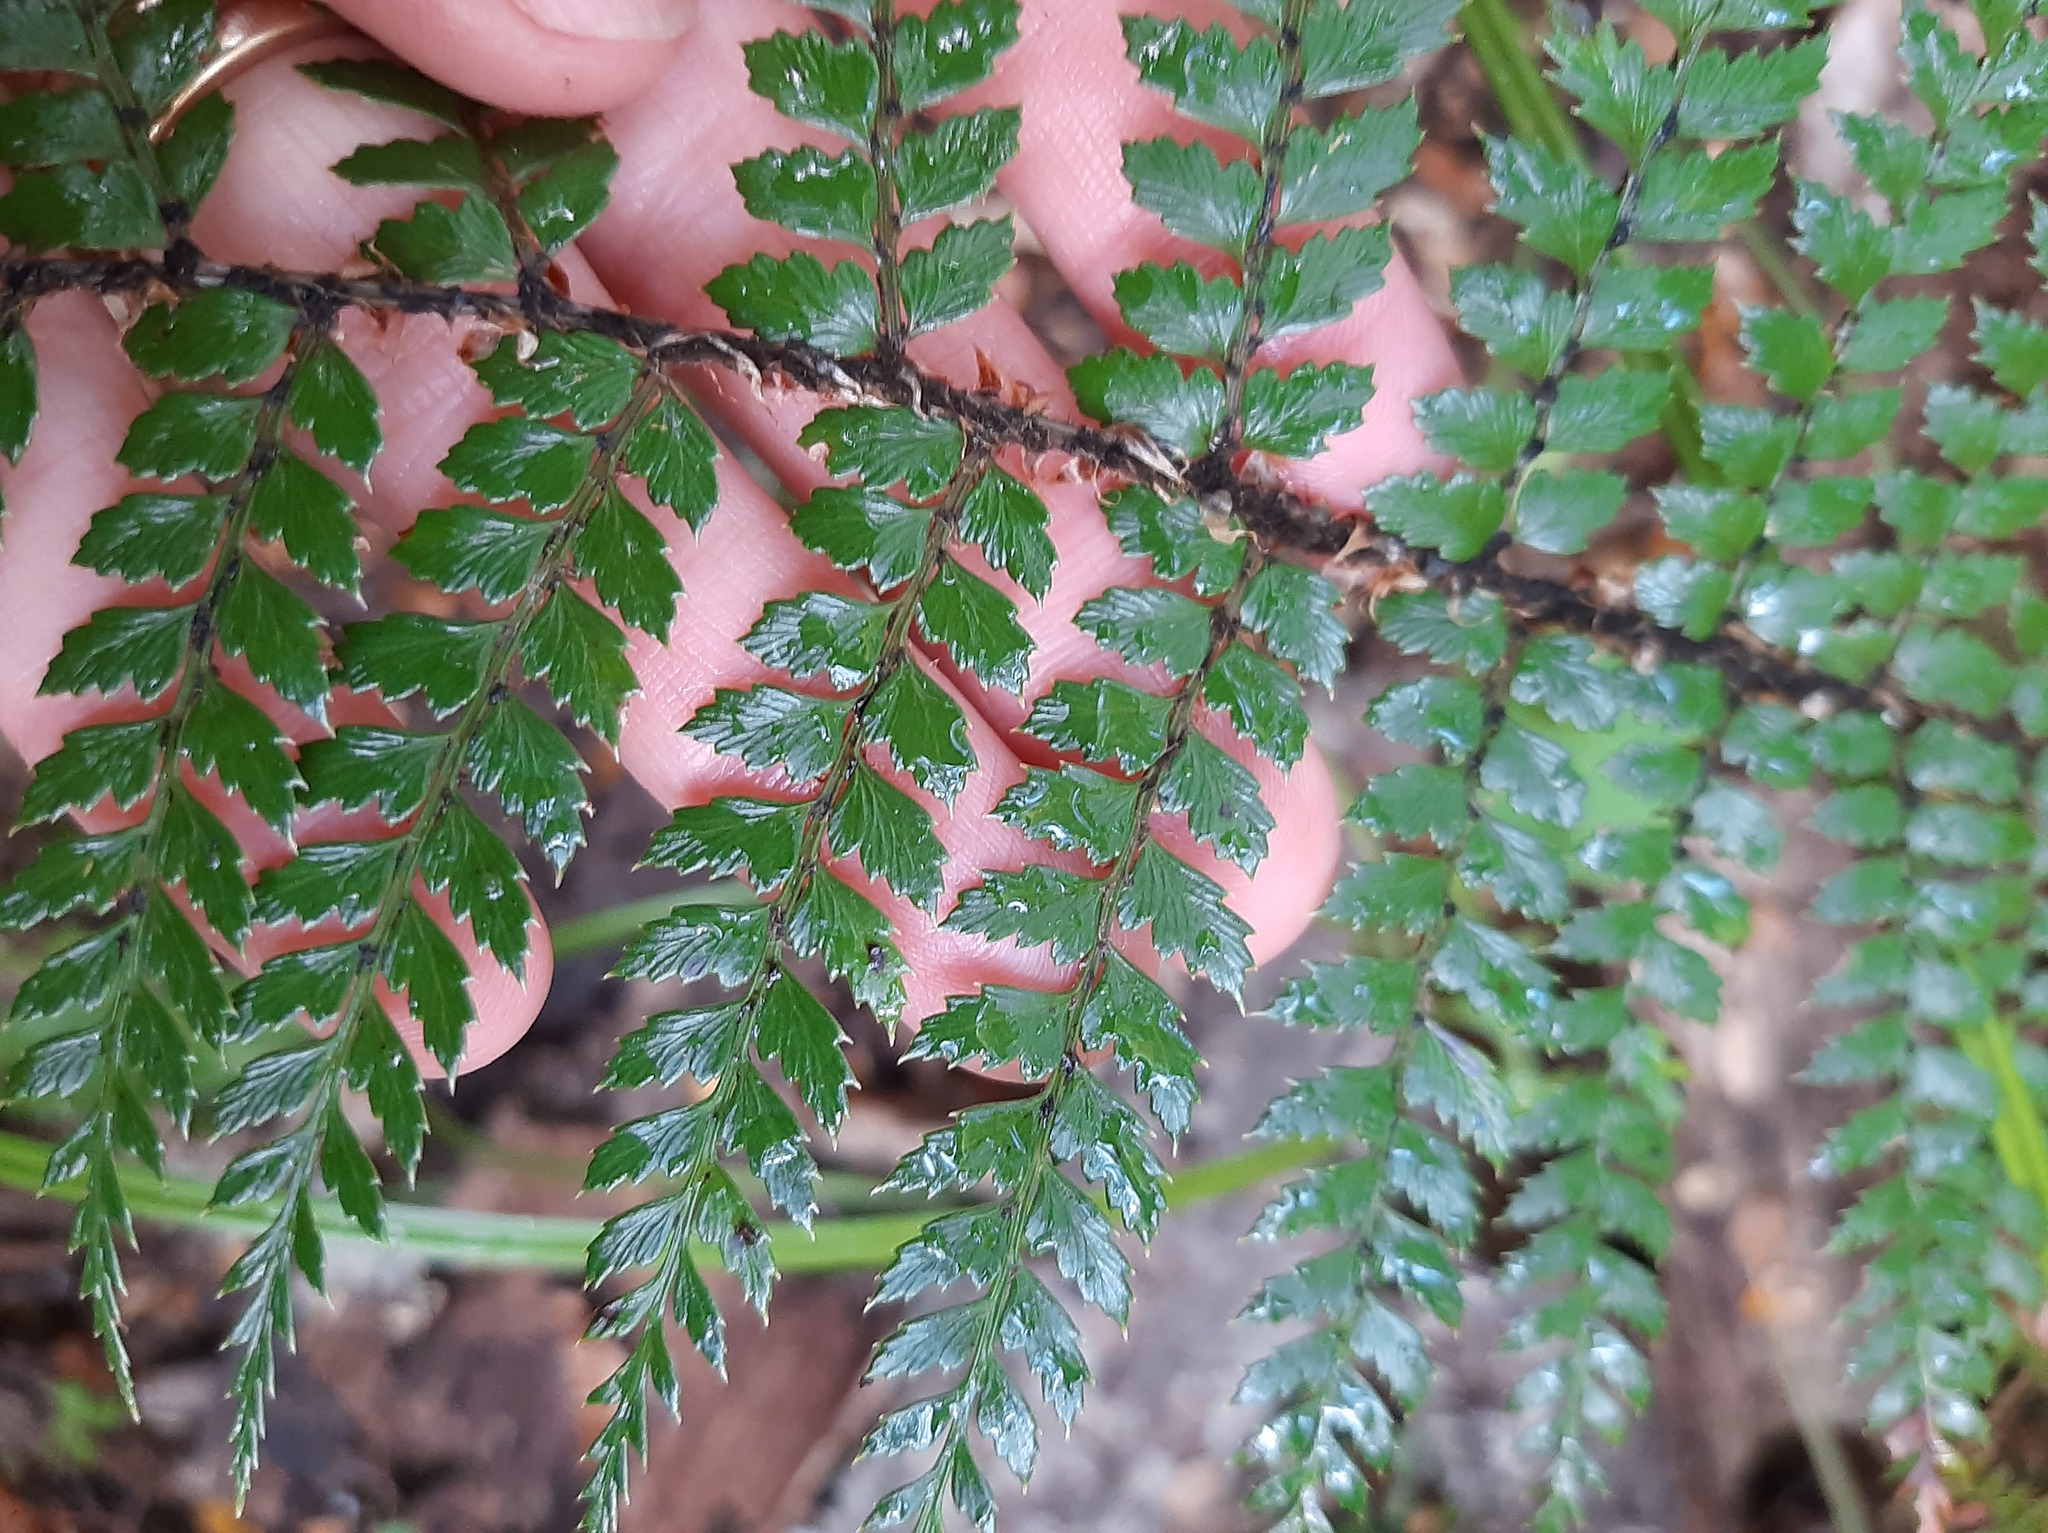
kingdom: Plantae
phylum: Tracheophyta
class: Polypodiopsida
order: Polypodiales
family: Dryopteridaceae
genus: Polystichum
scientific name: Polystichum vestitum
